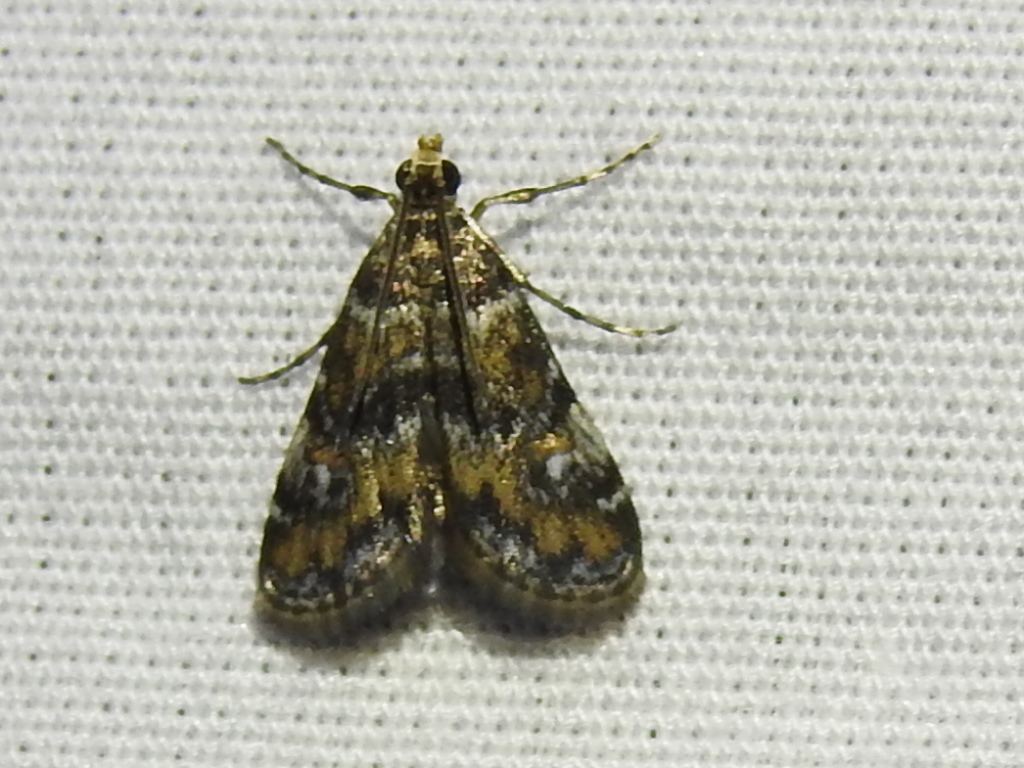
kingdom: Animalia
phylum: Arthropoda
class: Insecta
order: Lepidoptera
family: Crambidae
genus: Elophila
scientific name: Elophila obliteralis
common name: Waterlily leafcutter moth
